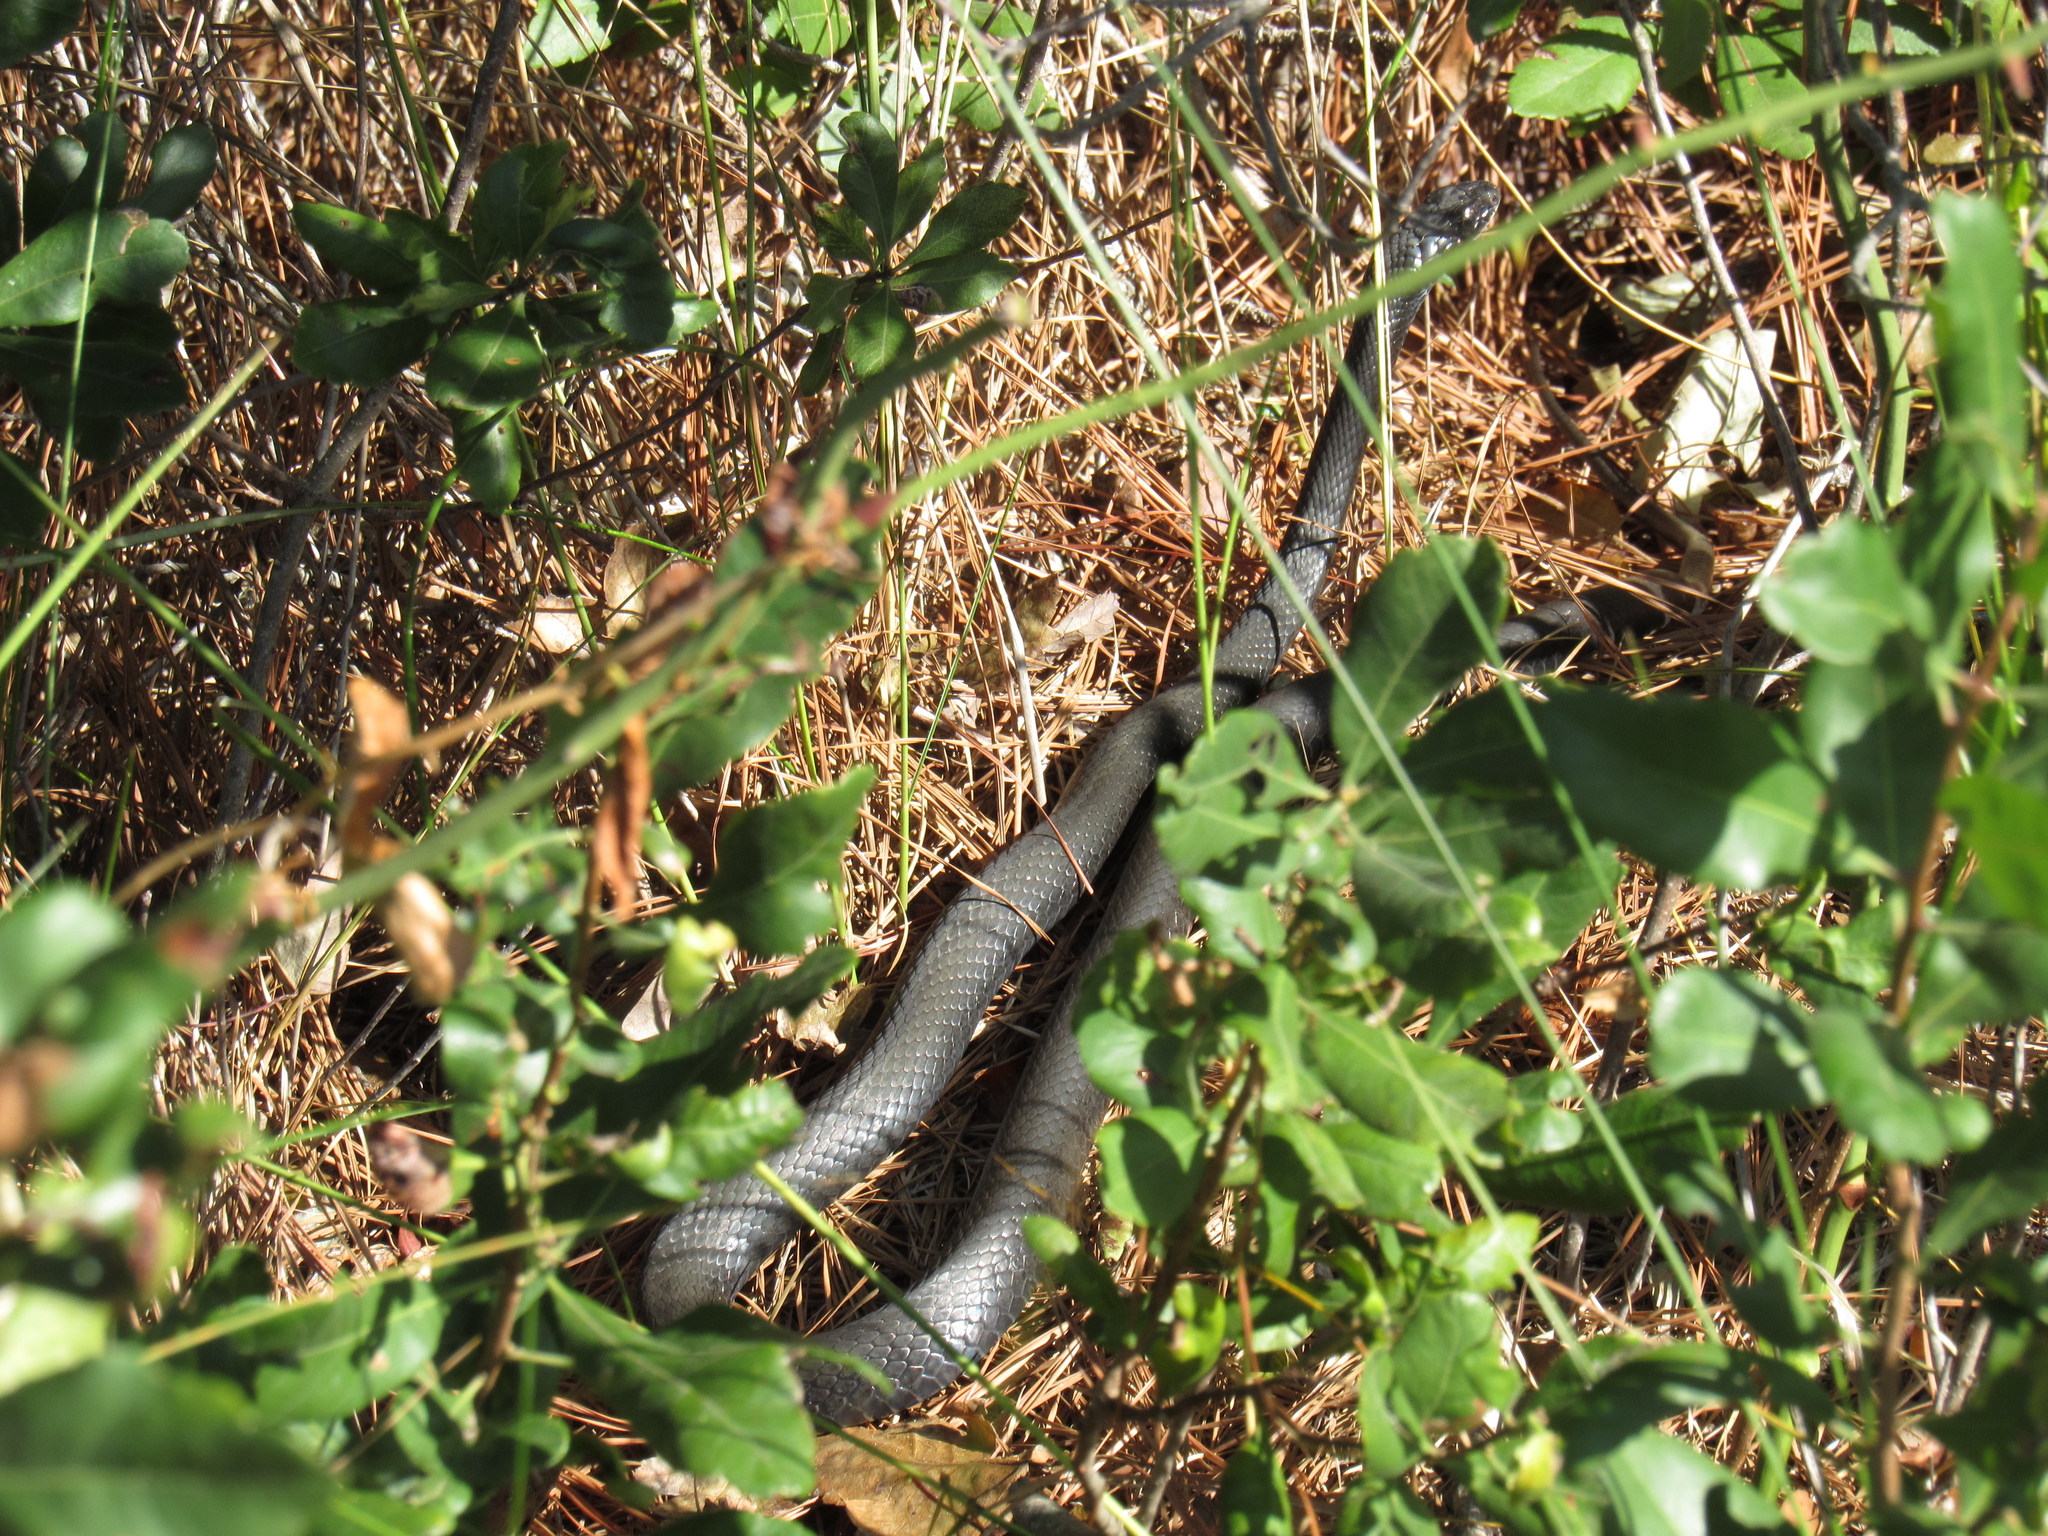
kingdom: Animalia
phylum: Chordata
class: Squamata
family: Colubridae
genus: Coluber
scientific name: Coluber constrictor
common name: Eastern racer
